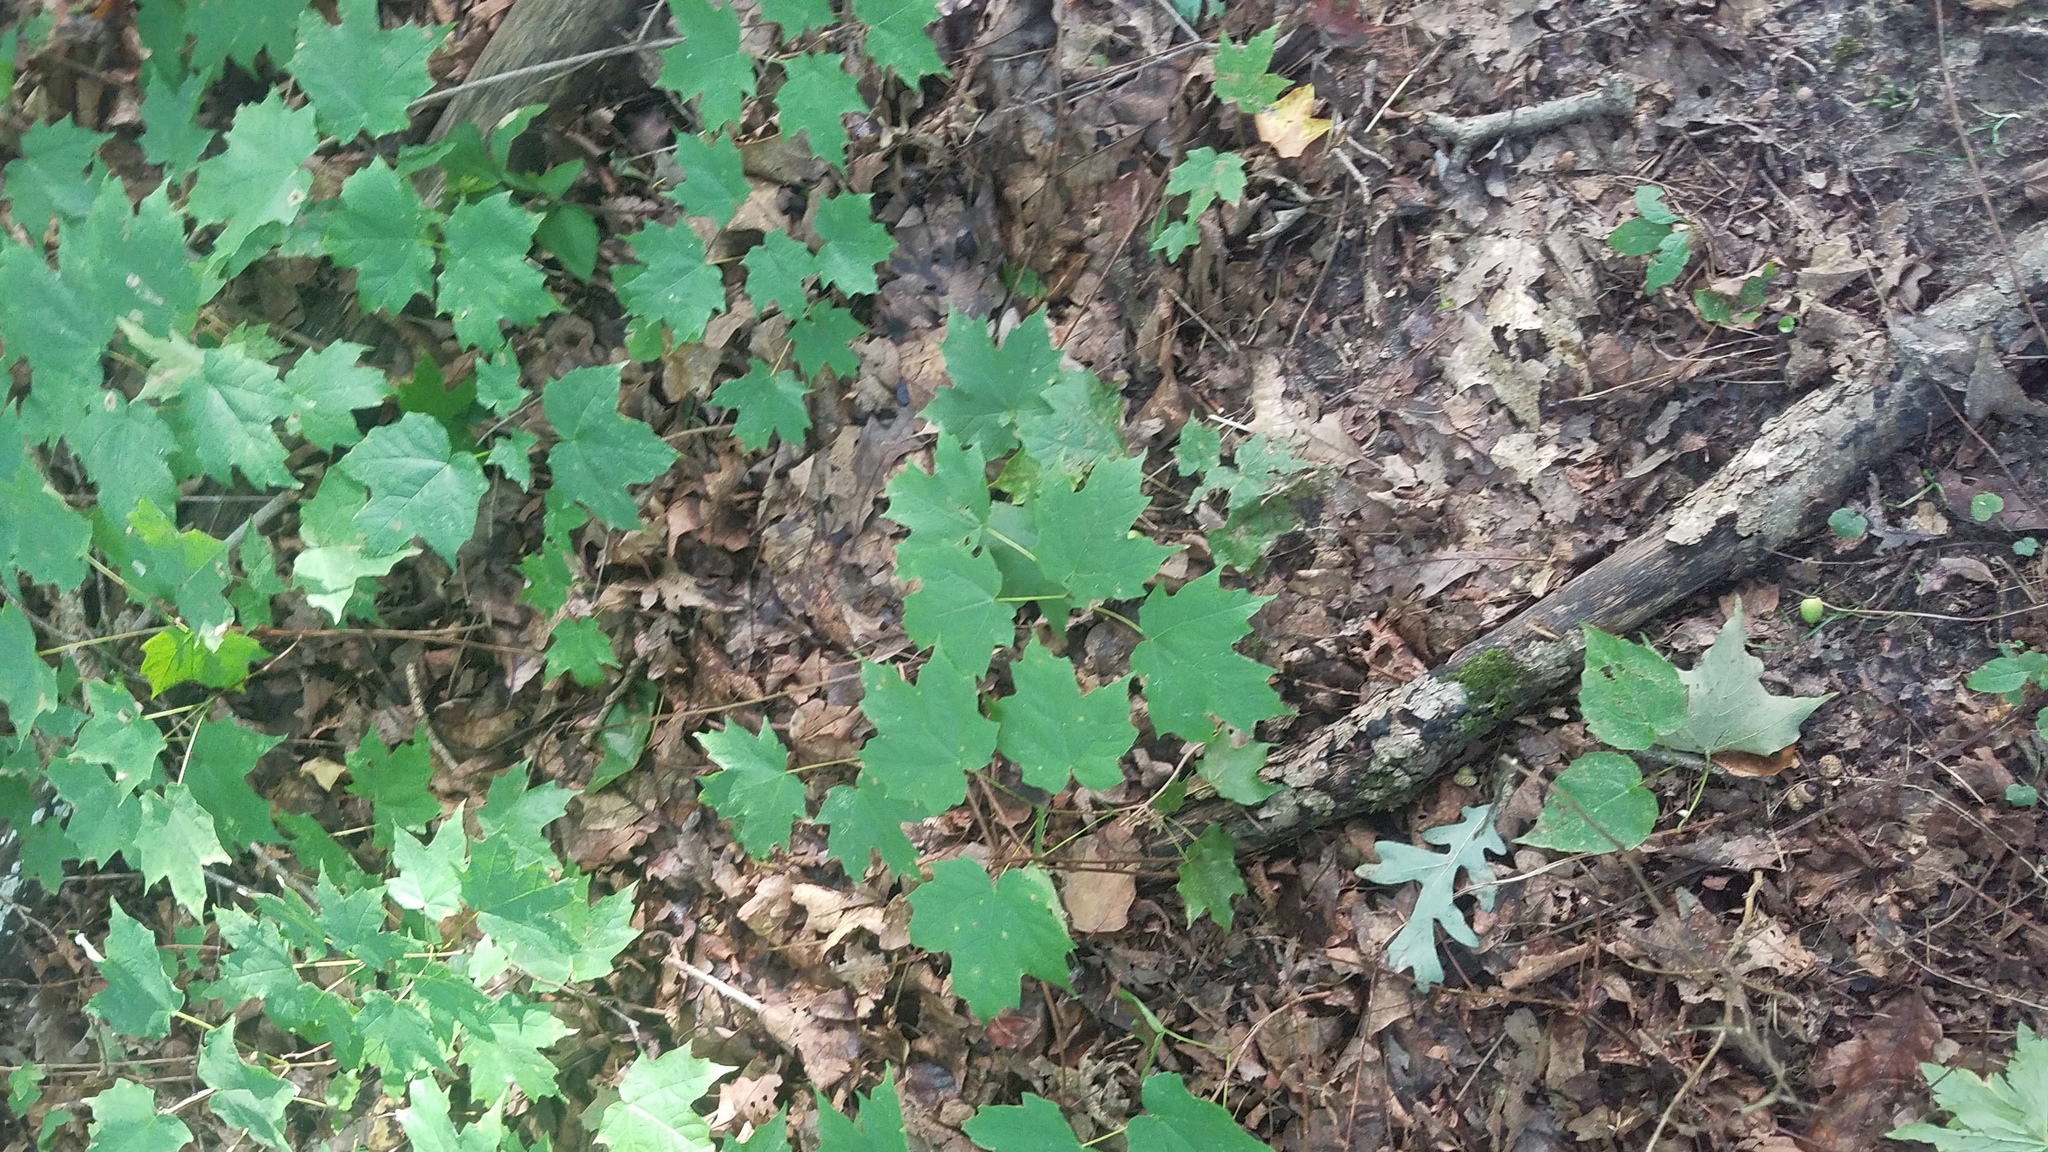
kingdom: Plantae
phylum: Tracheophyta
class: Magnoliopsida
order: Sapindales
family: Sapindaceae
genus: Acer
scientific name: Acer saccharum
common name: Sugar maple
